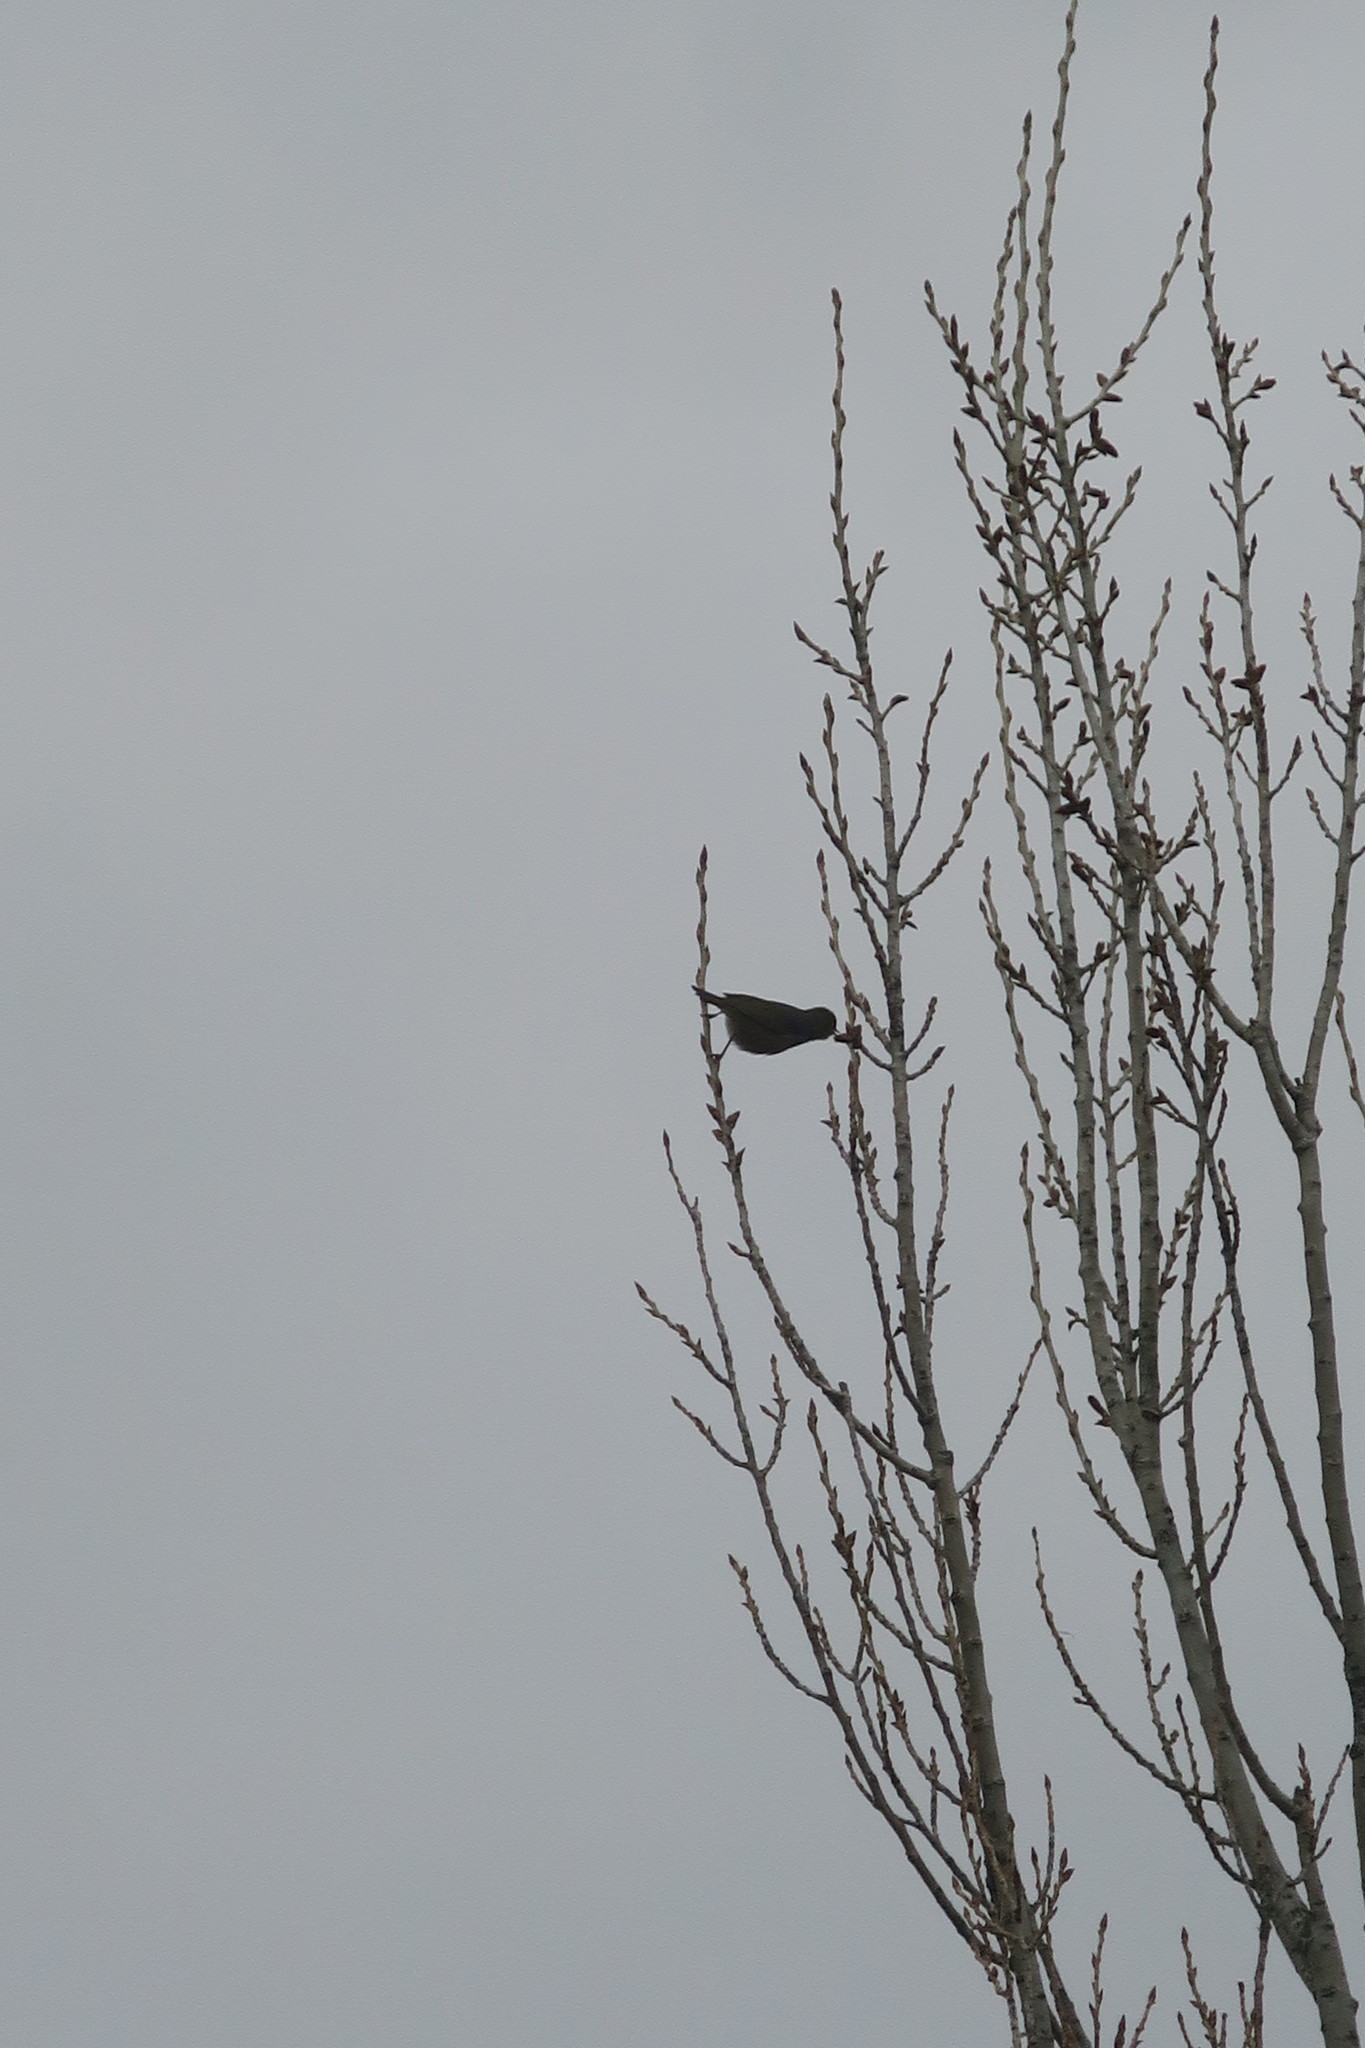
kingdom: Animalia
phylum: Chordata
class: Aves
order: Passeriformes
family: Zosteropidae
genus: Zosterops
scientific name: Zosterops lateralis
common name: Silvereye
